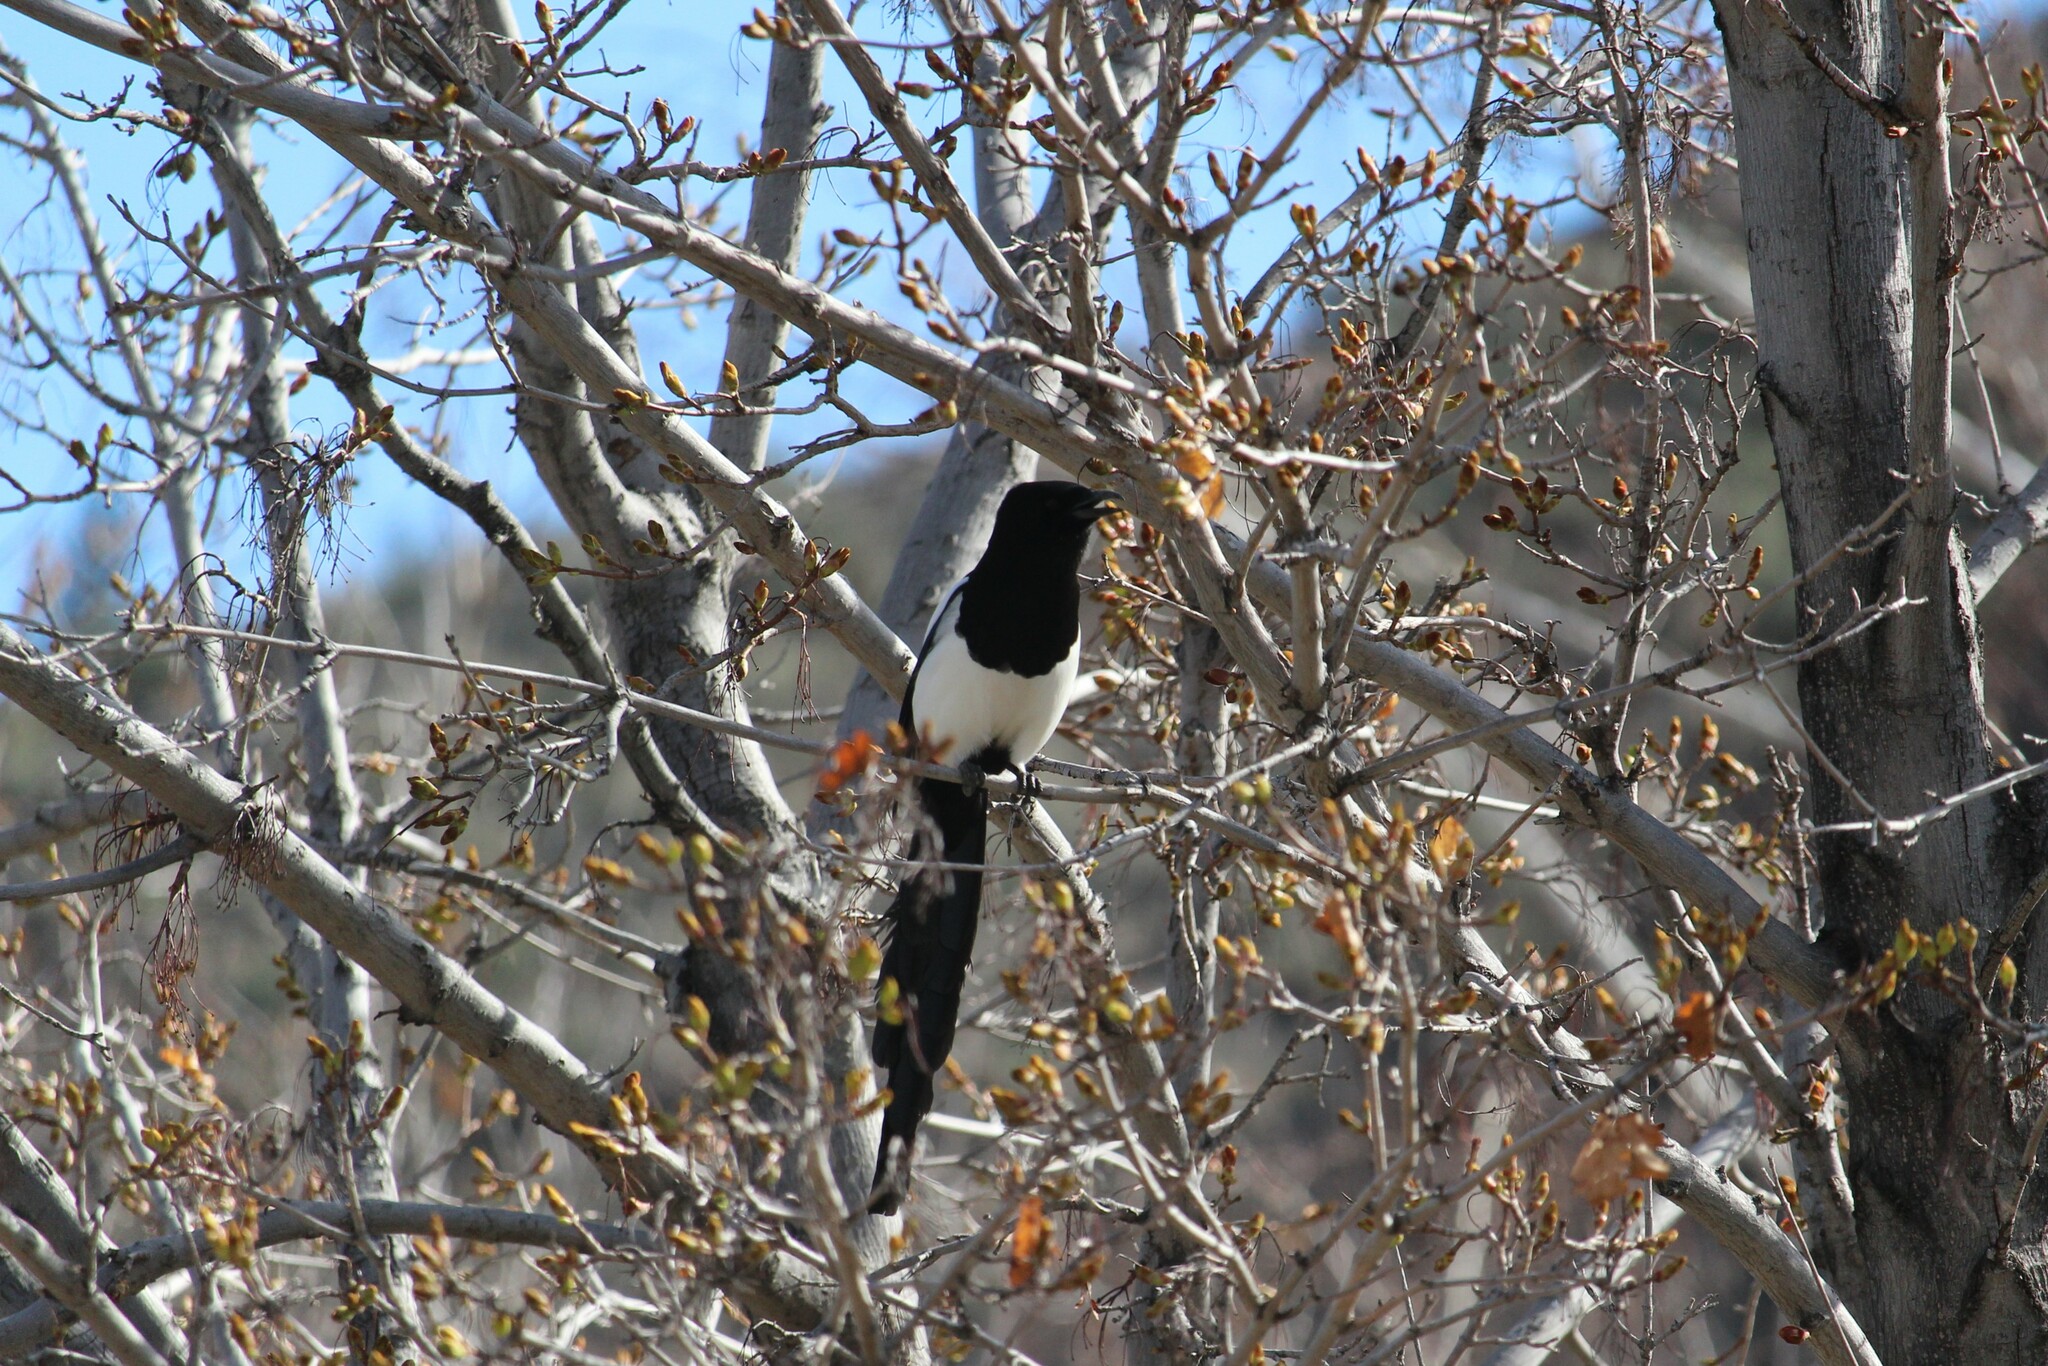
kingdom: Animalia
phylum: Chordata
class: Aves
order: Passeriformes
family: Corvidae
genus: Pica
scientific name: Pica hudsonia
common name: Black-billed magpie
